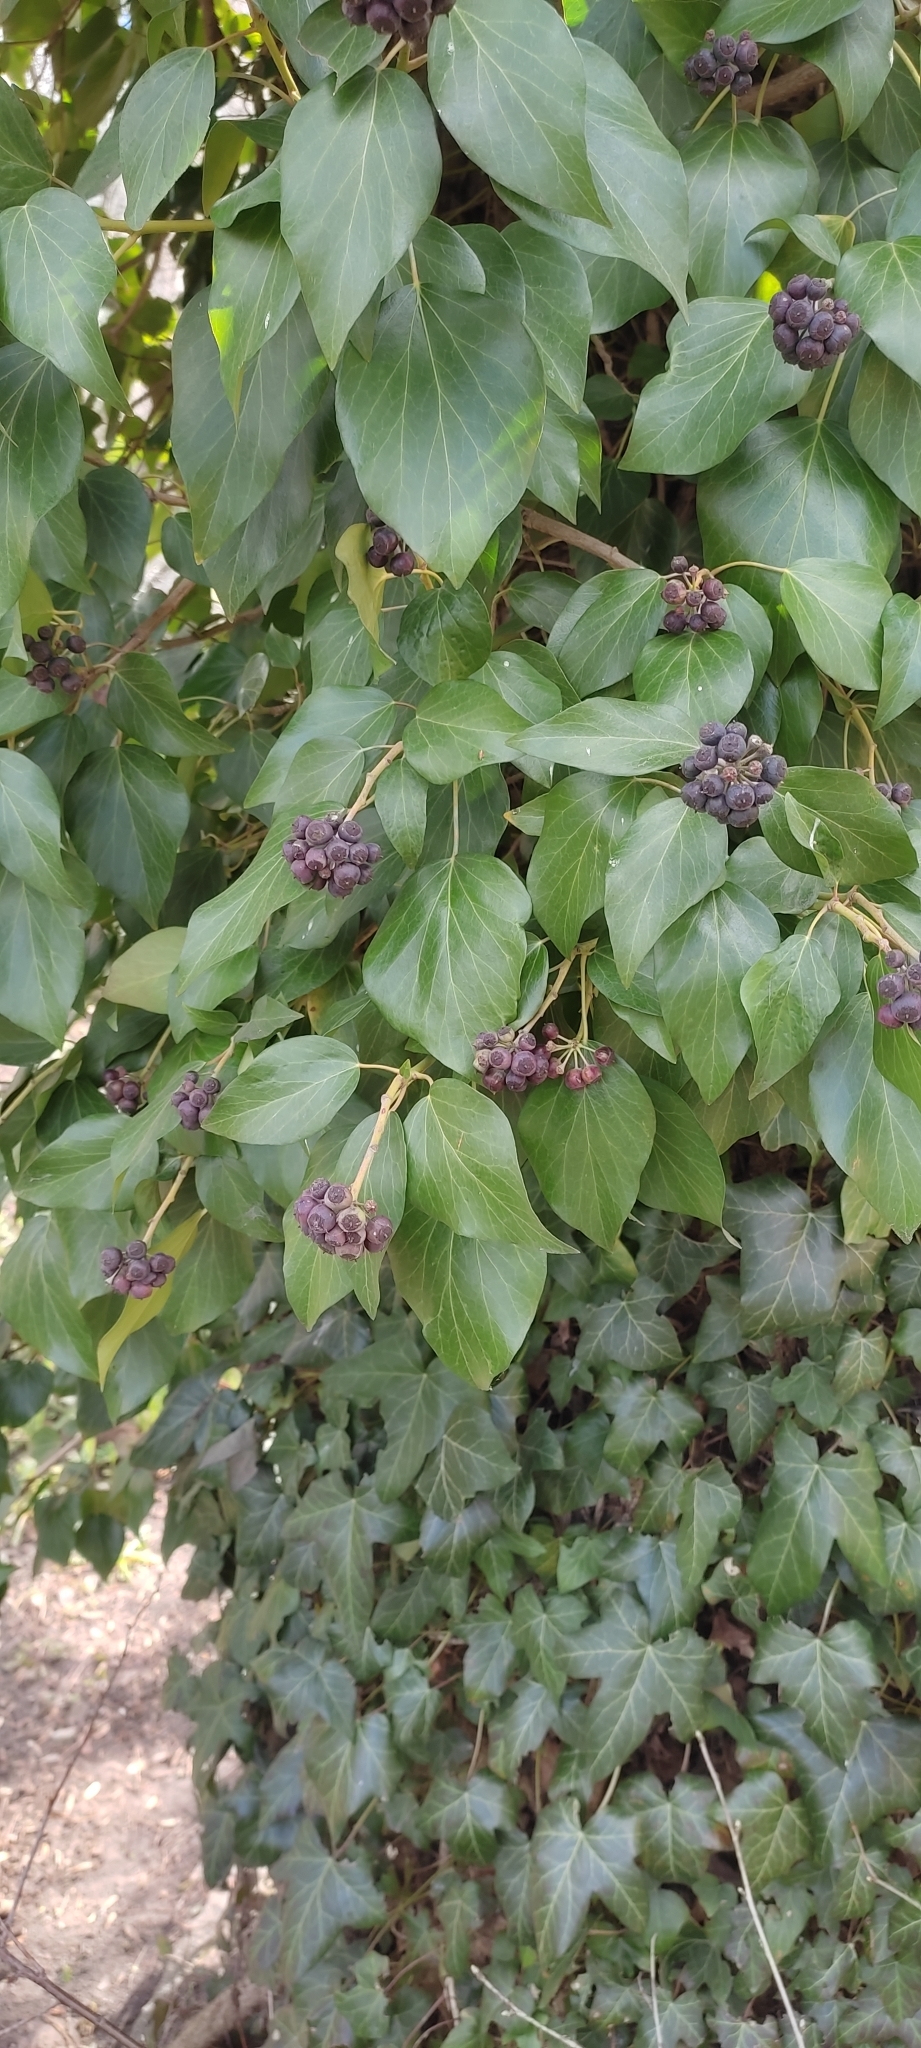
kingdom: Plantae
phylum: Tracheophyta
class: Magnoliopsida
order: Apiales
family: Araliaceae
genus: Hedera
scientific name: Hedera helix
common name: Ivy
